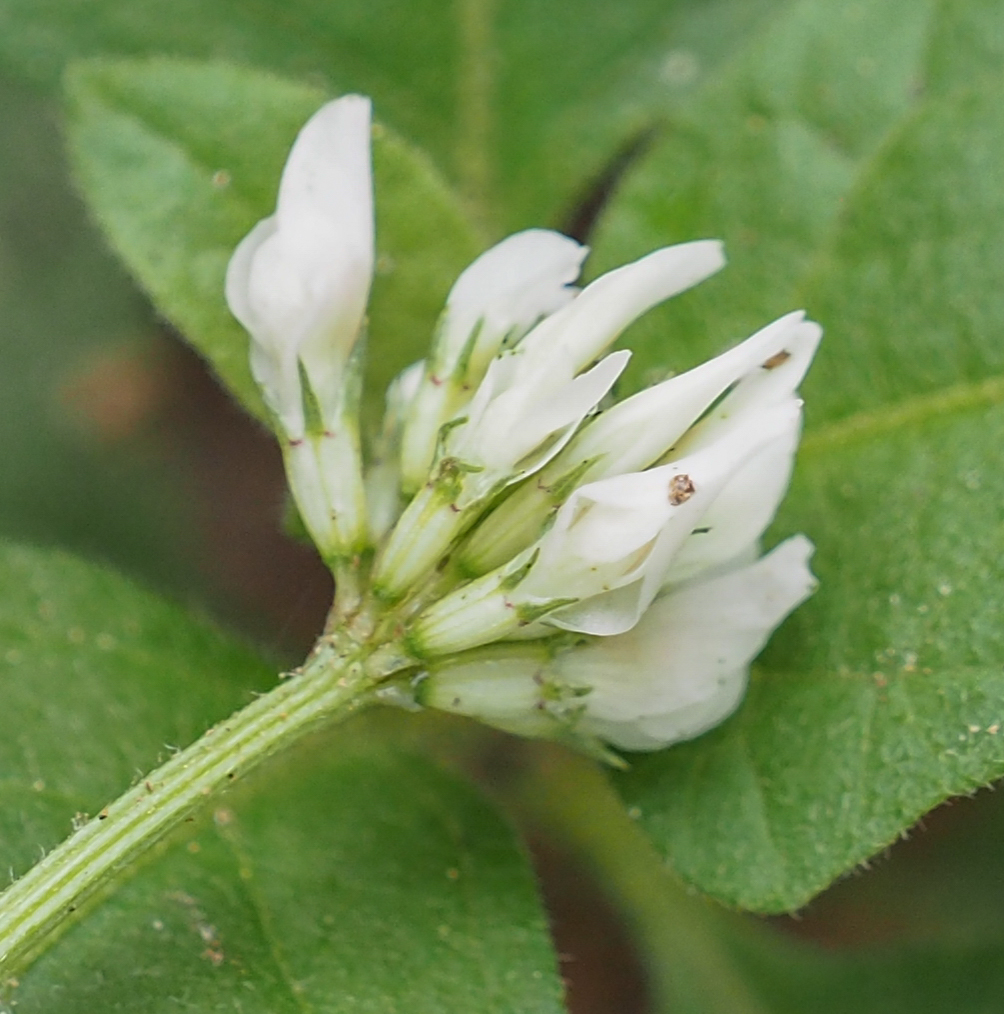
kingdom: Plantae
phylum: Tracheophyta
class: Magnoliopsida
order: Fabales
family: Fabaceae
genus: Trifolium
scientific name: Trifolium repens
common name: White clover
